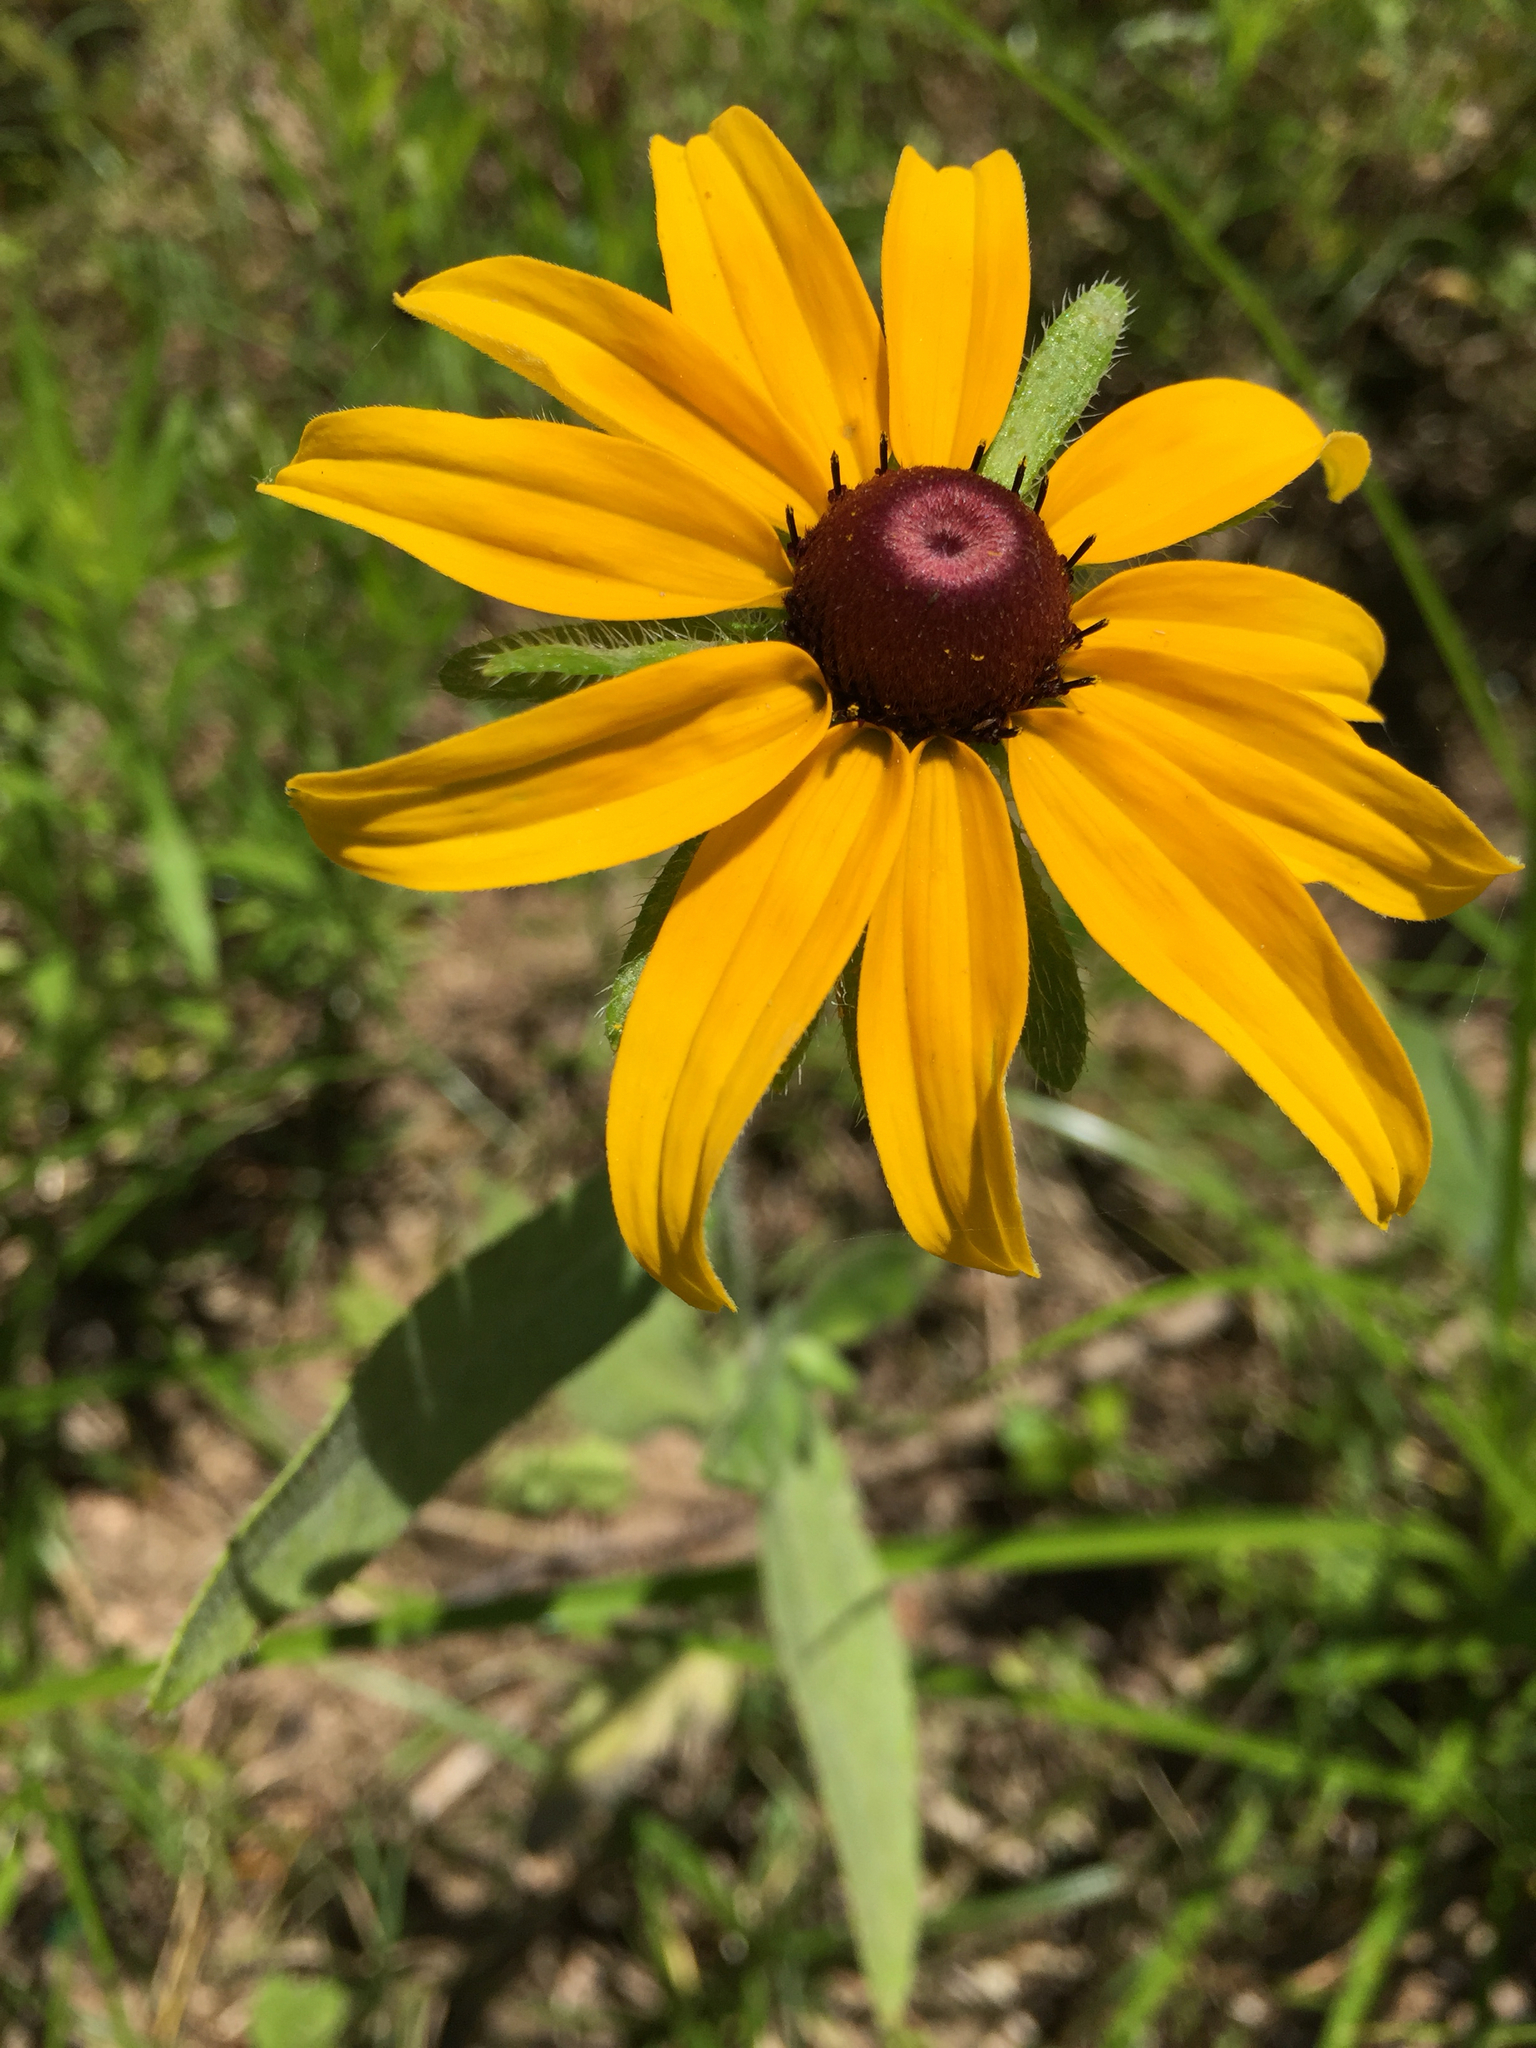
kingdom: Plantae
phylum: Tracheophyta
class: Magnoliopsida
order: Asterales
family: Asteraceae
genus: Rudbeckia
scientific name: Rudbeckia hirta
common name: Black-eyed-susan
